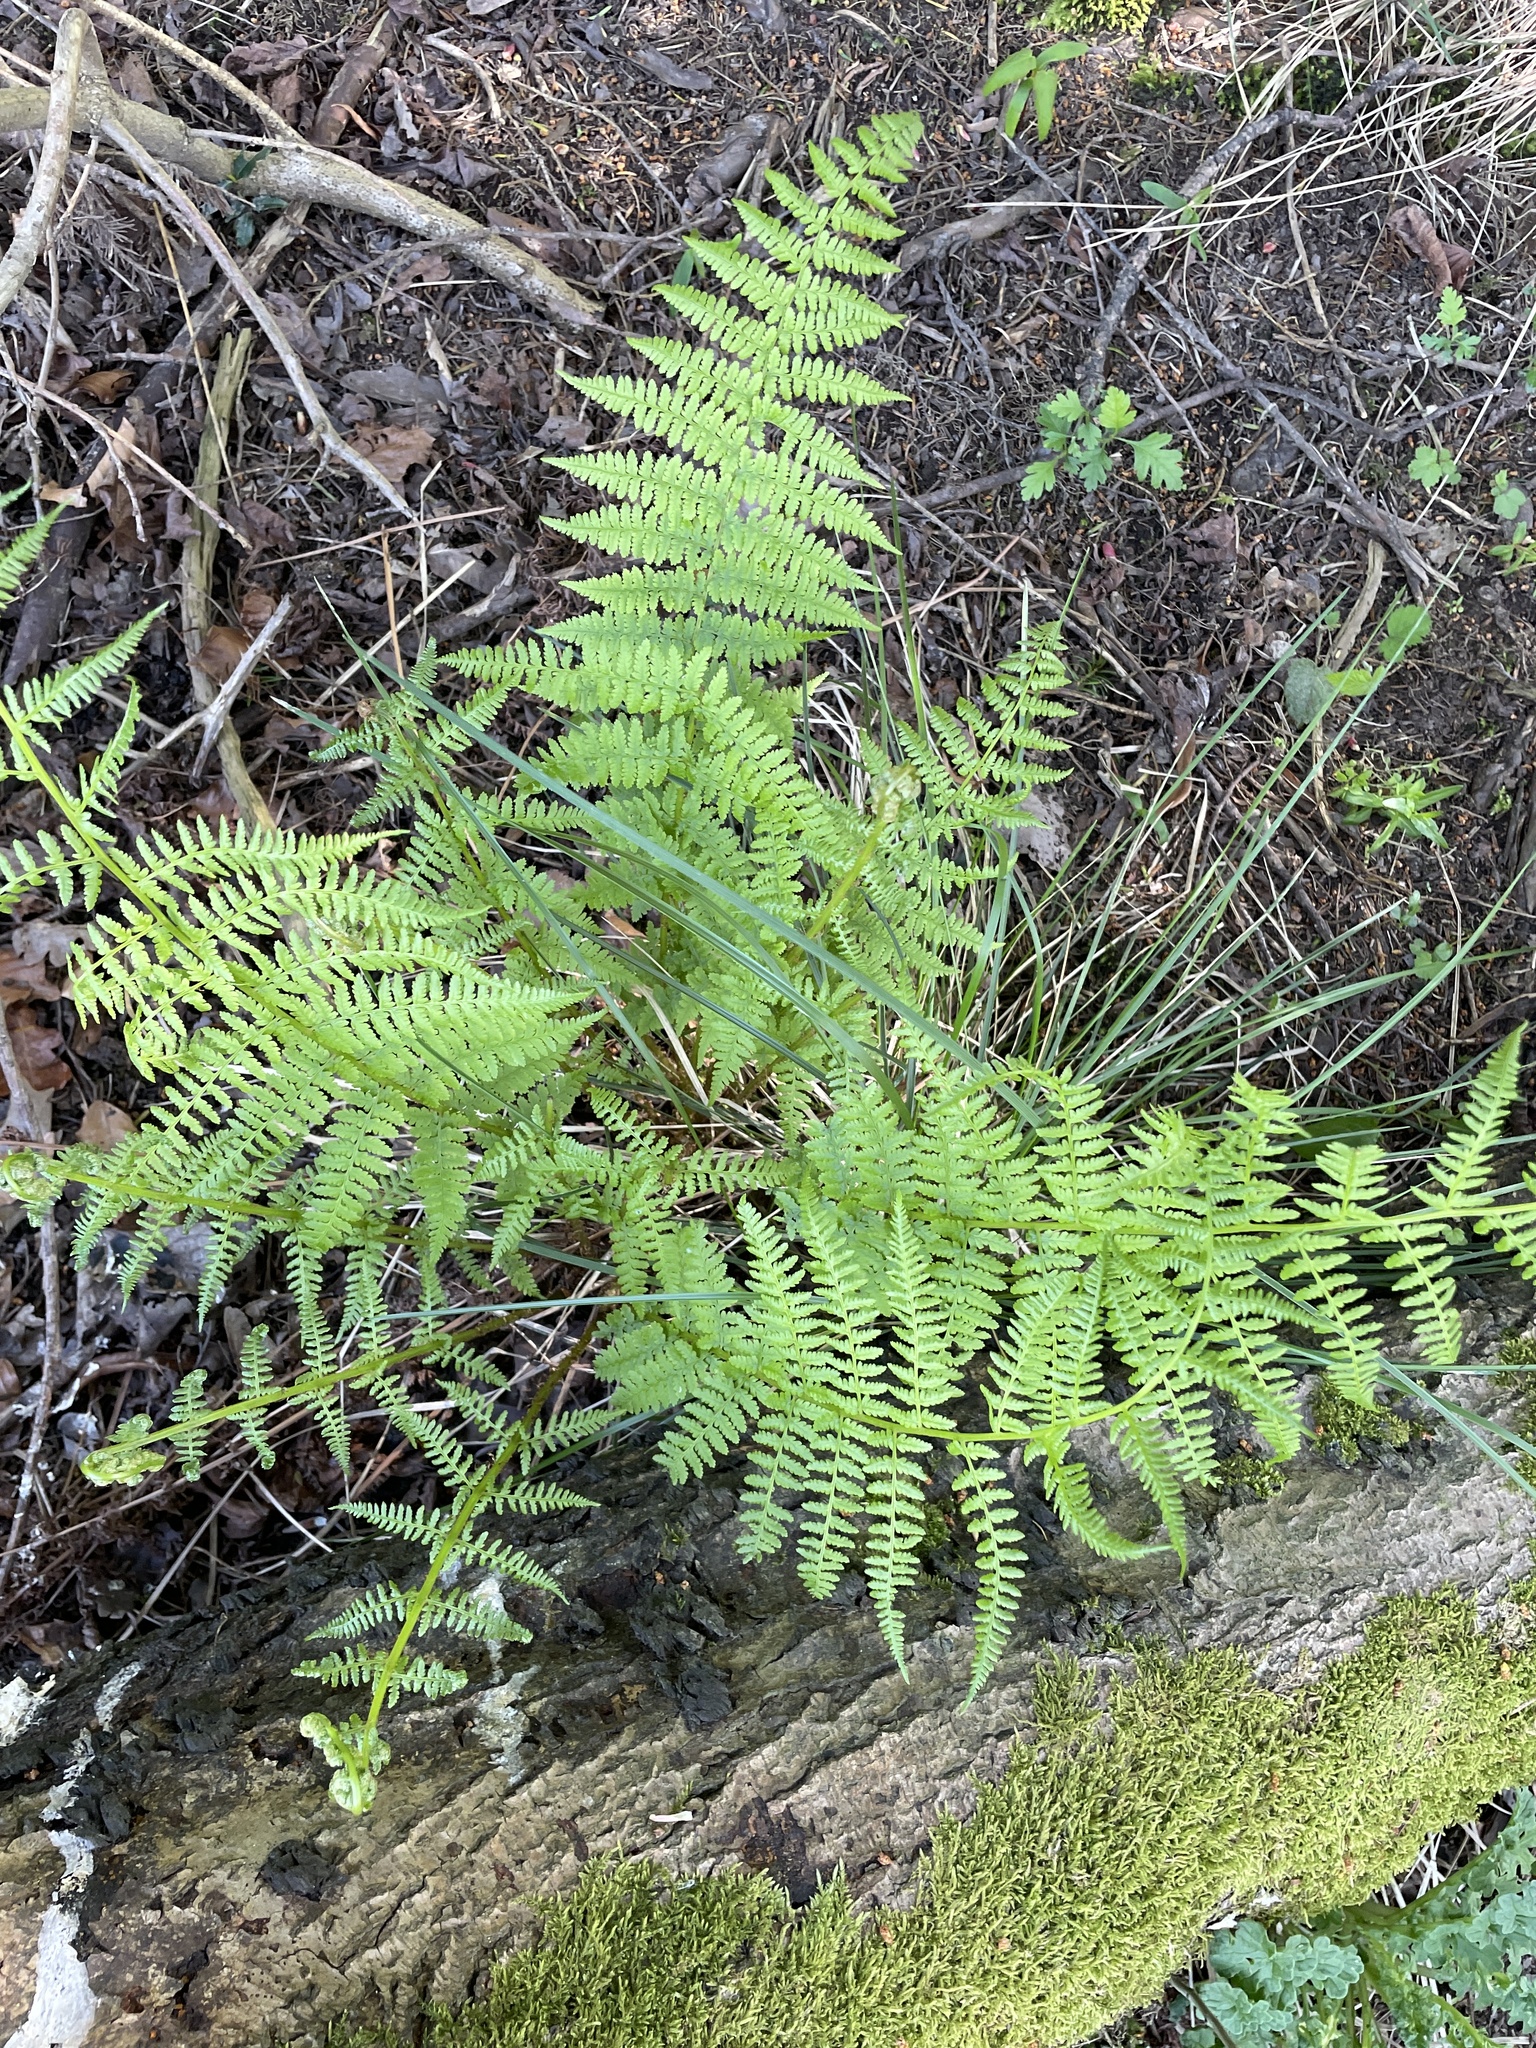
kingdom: Plantae
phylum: Tracheophyta
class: Polypodiopsida
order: Polypodiales
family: Athyriaceae
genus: Athyrium
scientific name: Athyrium filix-femina
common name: Lady fern
